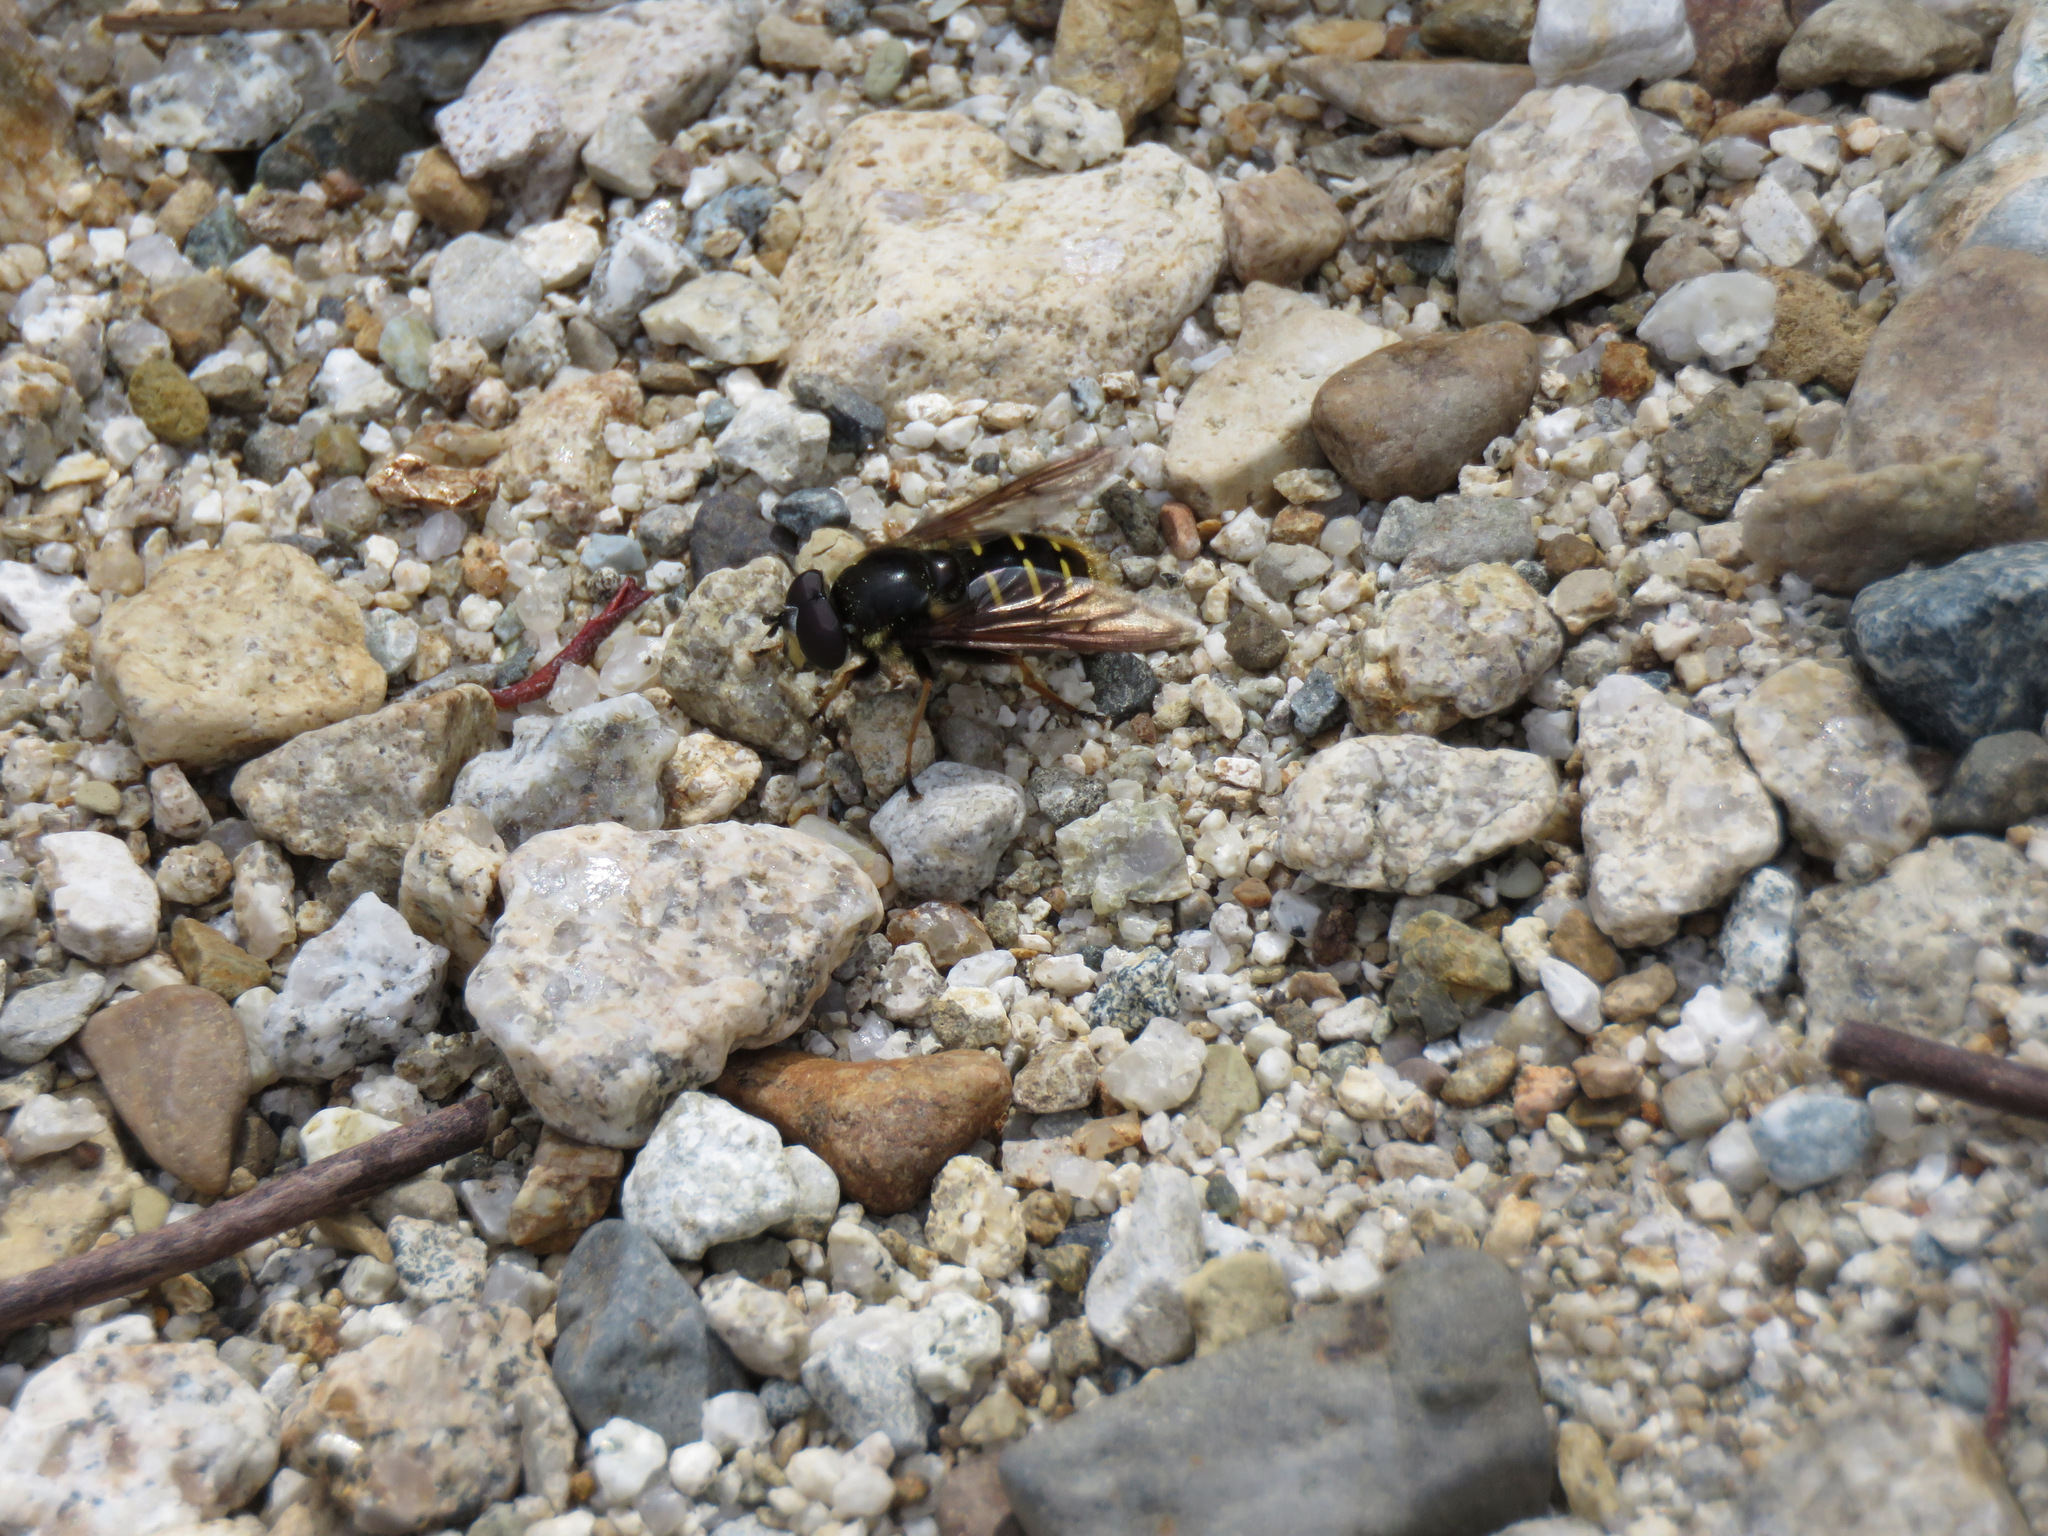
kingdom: Animalia
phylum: Arthropoda
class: Insecta
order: Diptera
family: Syrphidae
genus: Sericomyia
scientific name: Sericomyia chalcopyga
